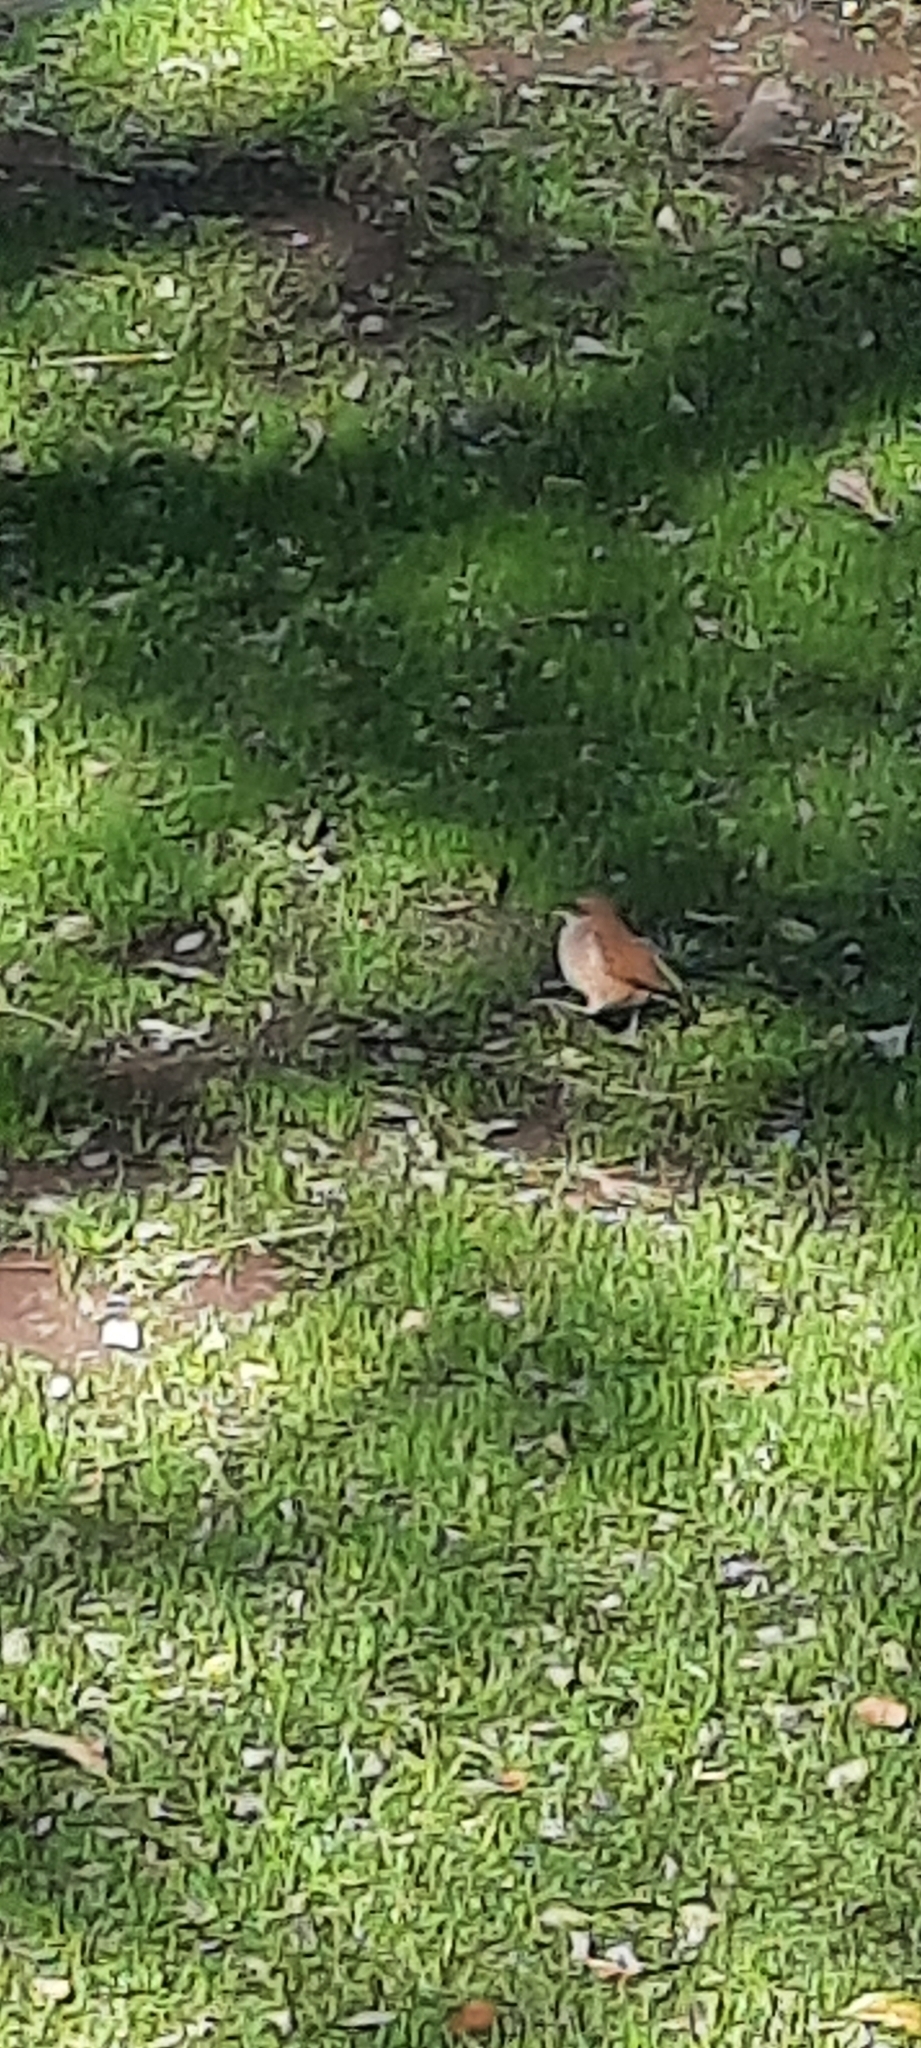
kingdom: Animalia
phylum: Chordata
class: Aves
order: Passeriformes
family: Furnariidae
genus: Furnarius
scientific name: Furnarius rufus
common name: Rufous hornero
